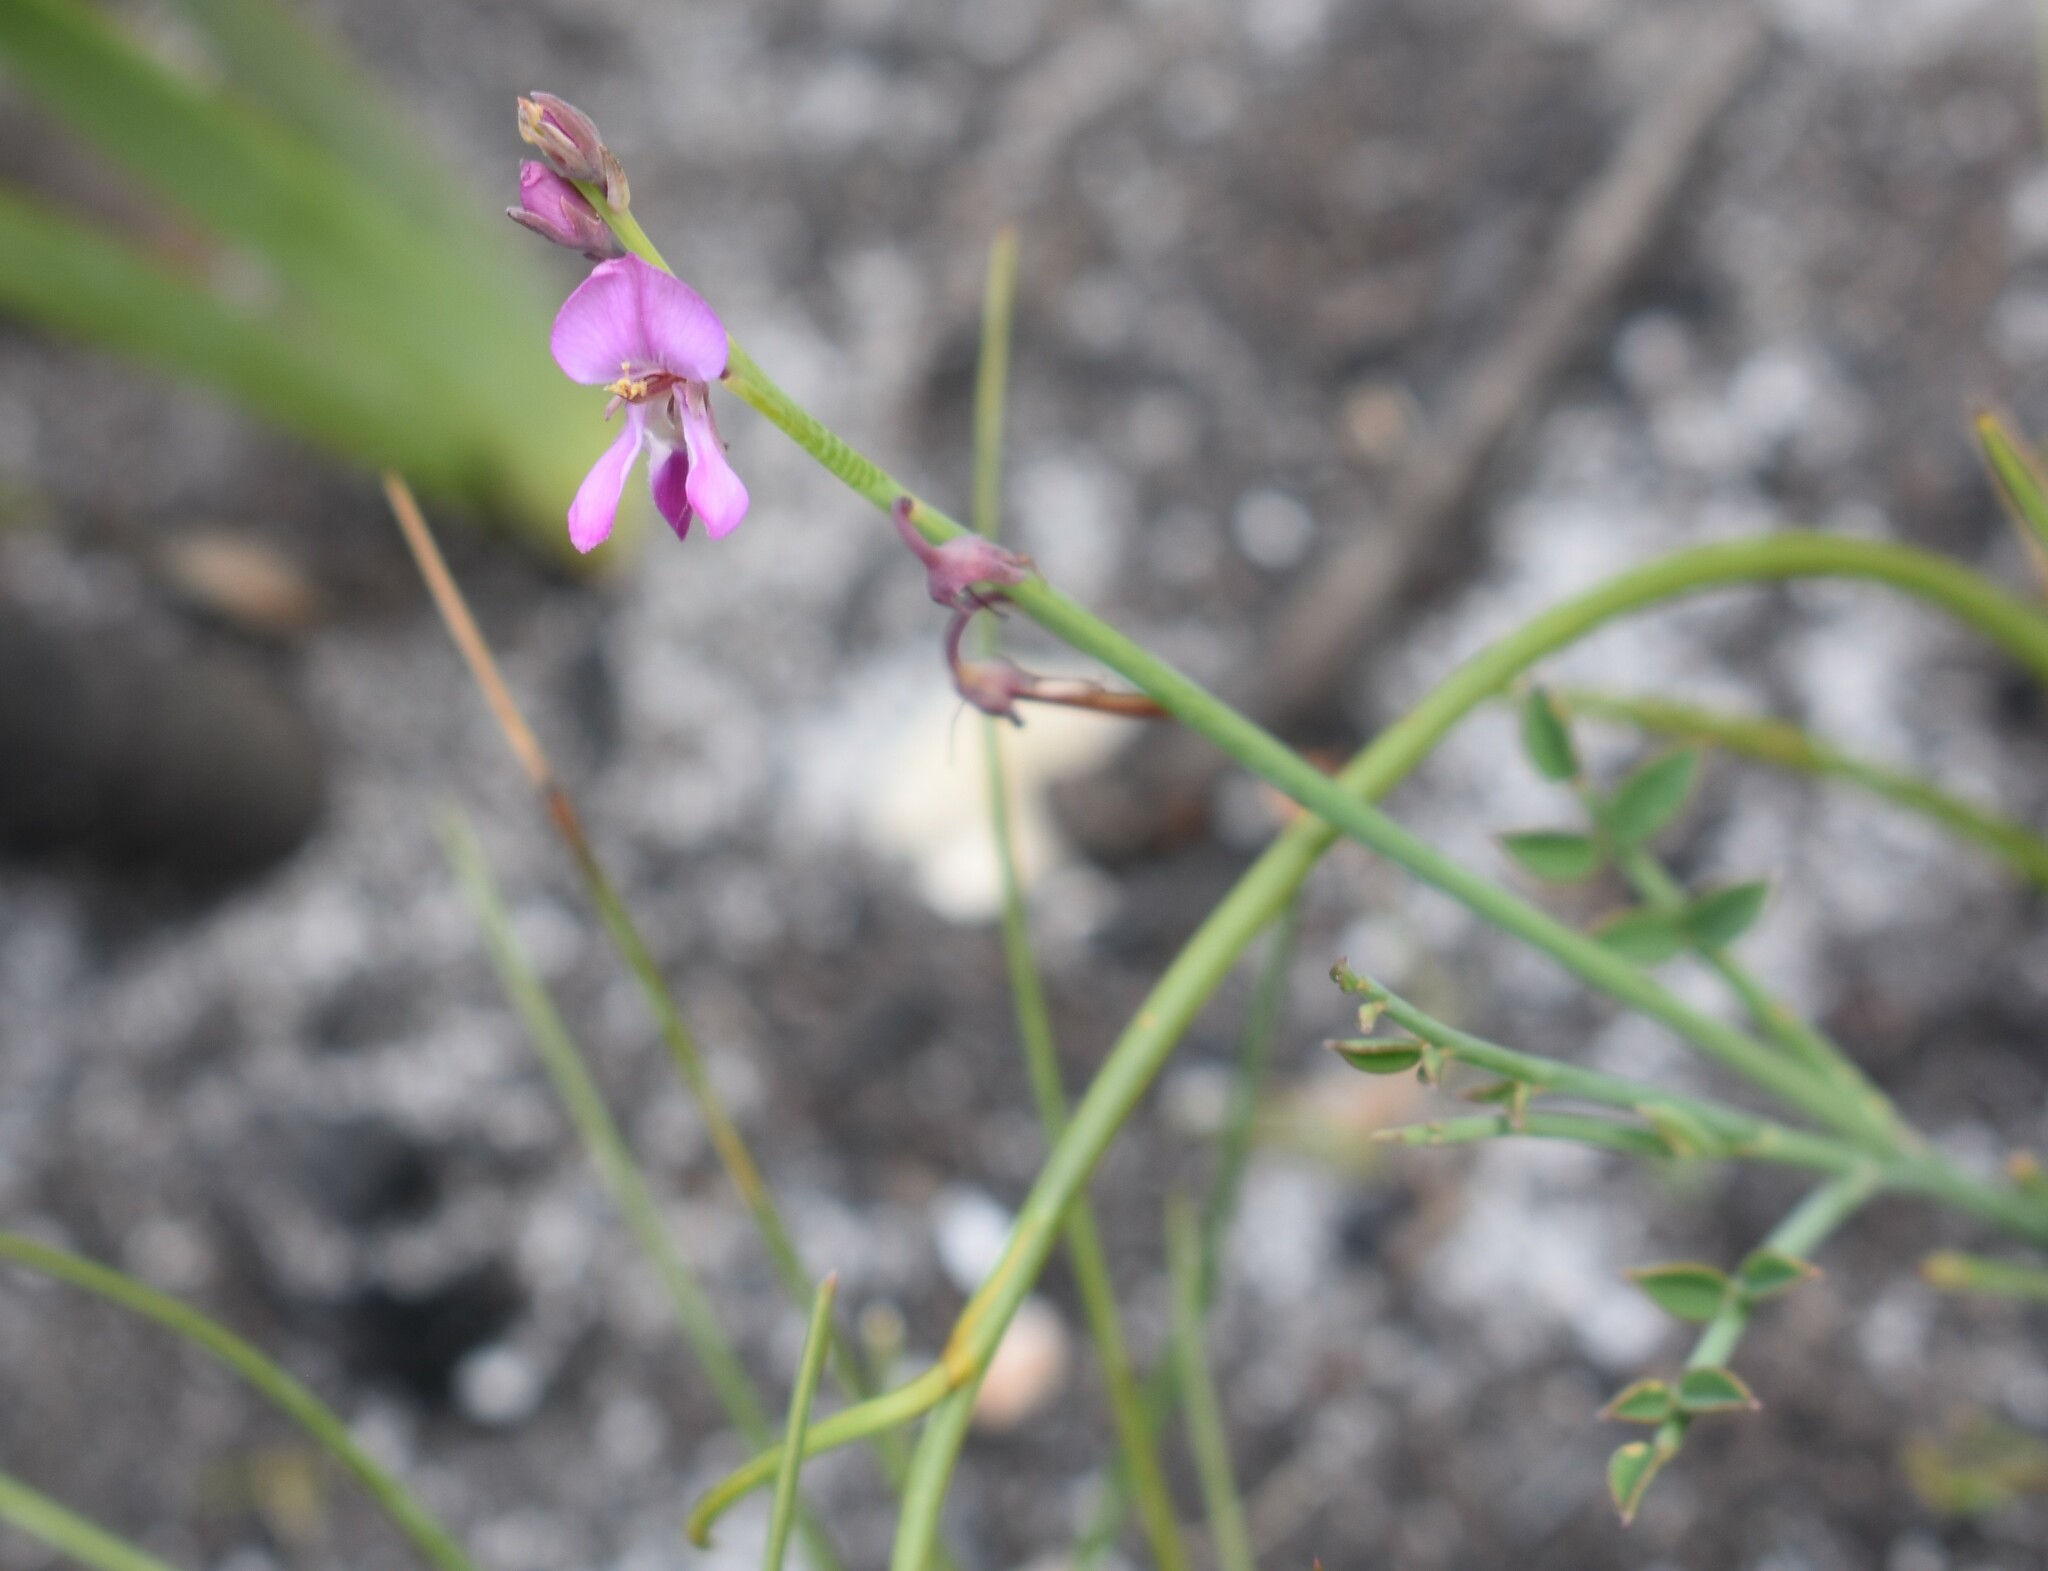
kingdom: Plantae
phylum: Tracheophyta
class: Magnoliopsida
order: Fabales
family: Fabaceae
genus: Indigofera
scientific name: Indigofera ionii
